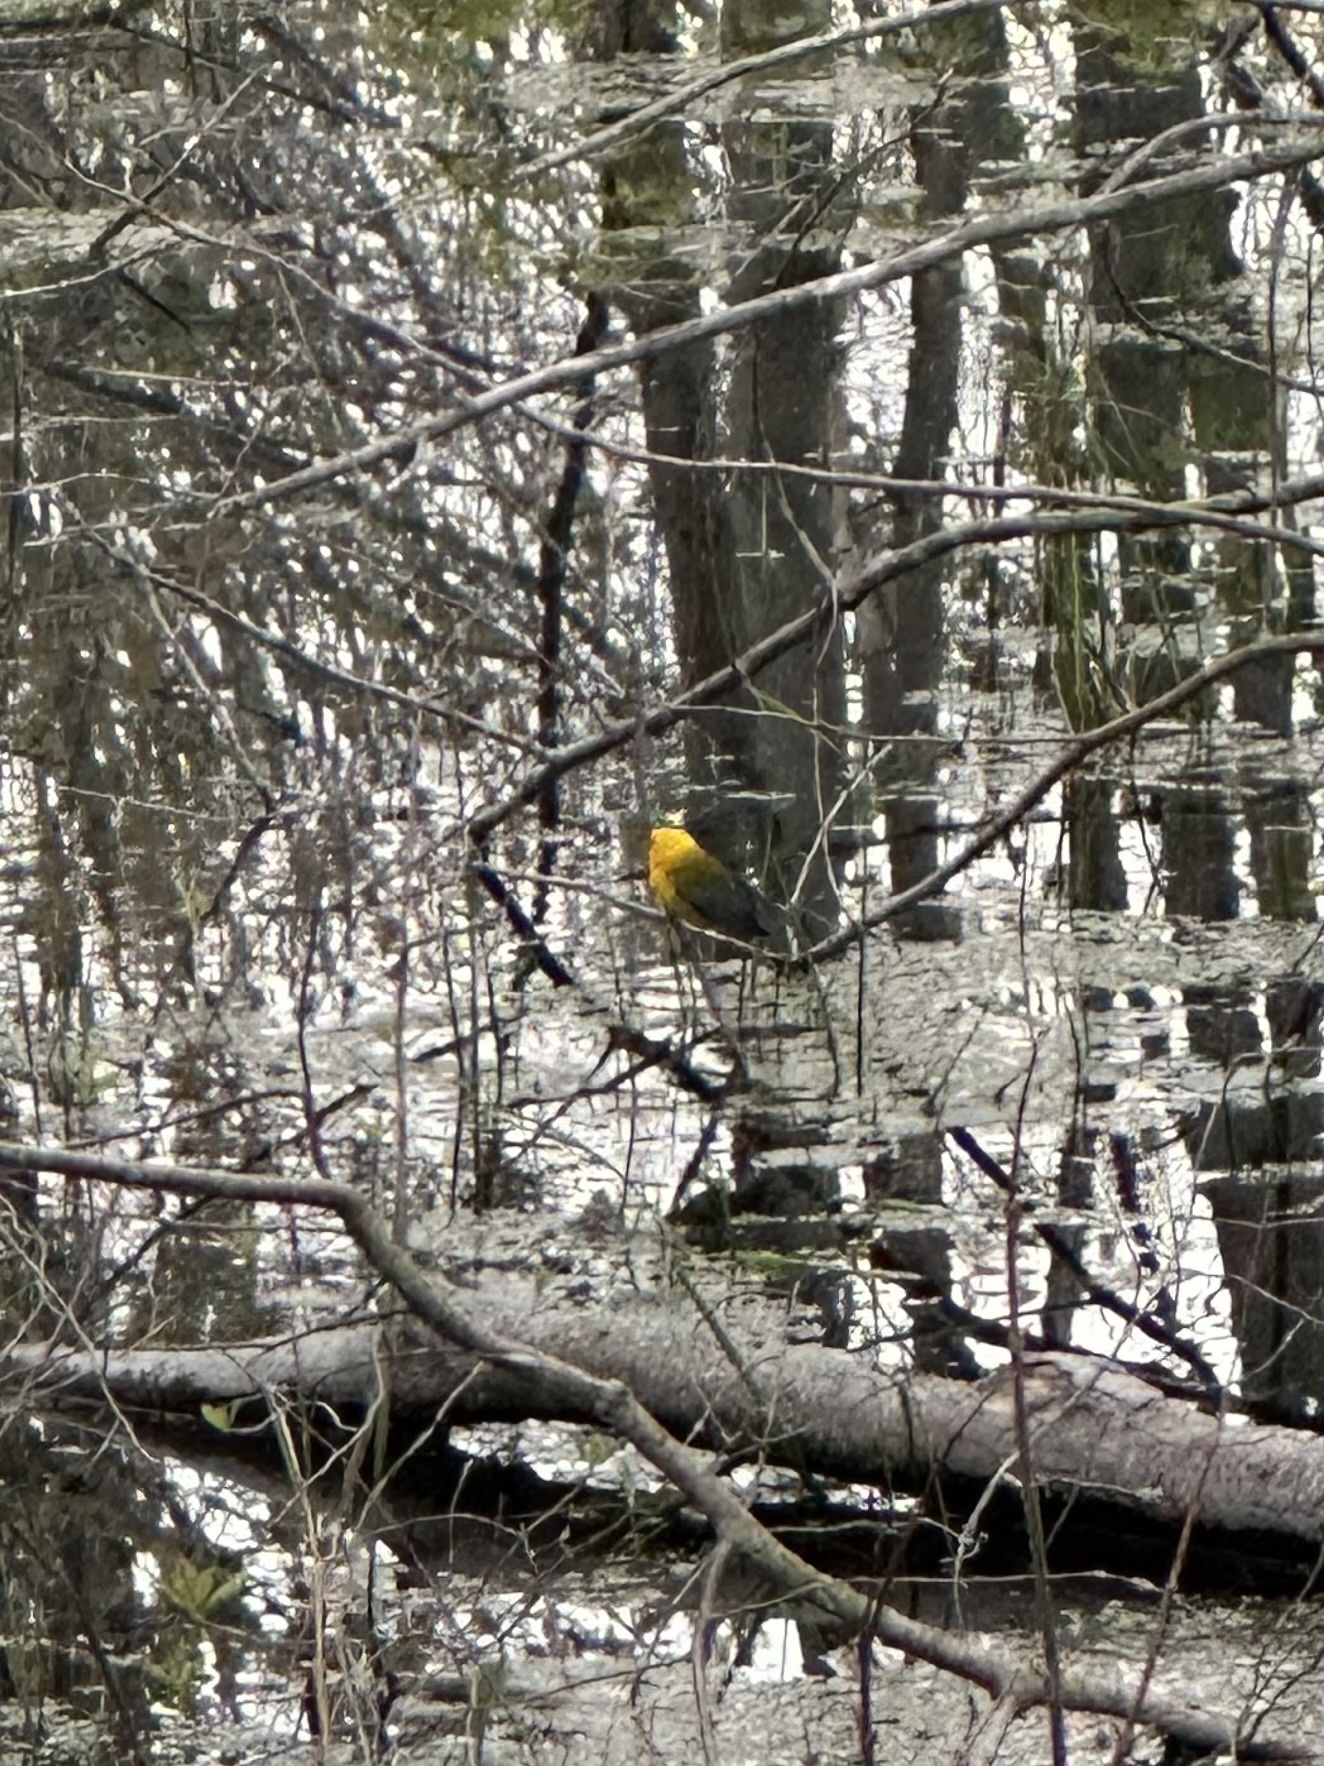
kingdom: Animalia
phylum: Chordata
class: Aves
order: Passeriformes
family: Parulidae
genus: Protonotaria
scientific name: Protonotaria citrea
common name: Prothonotary warbler
